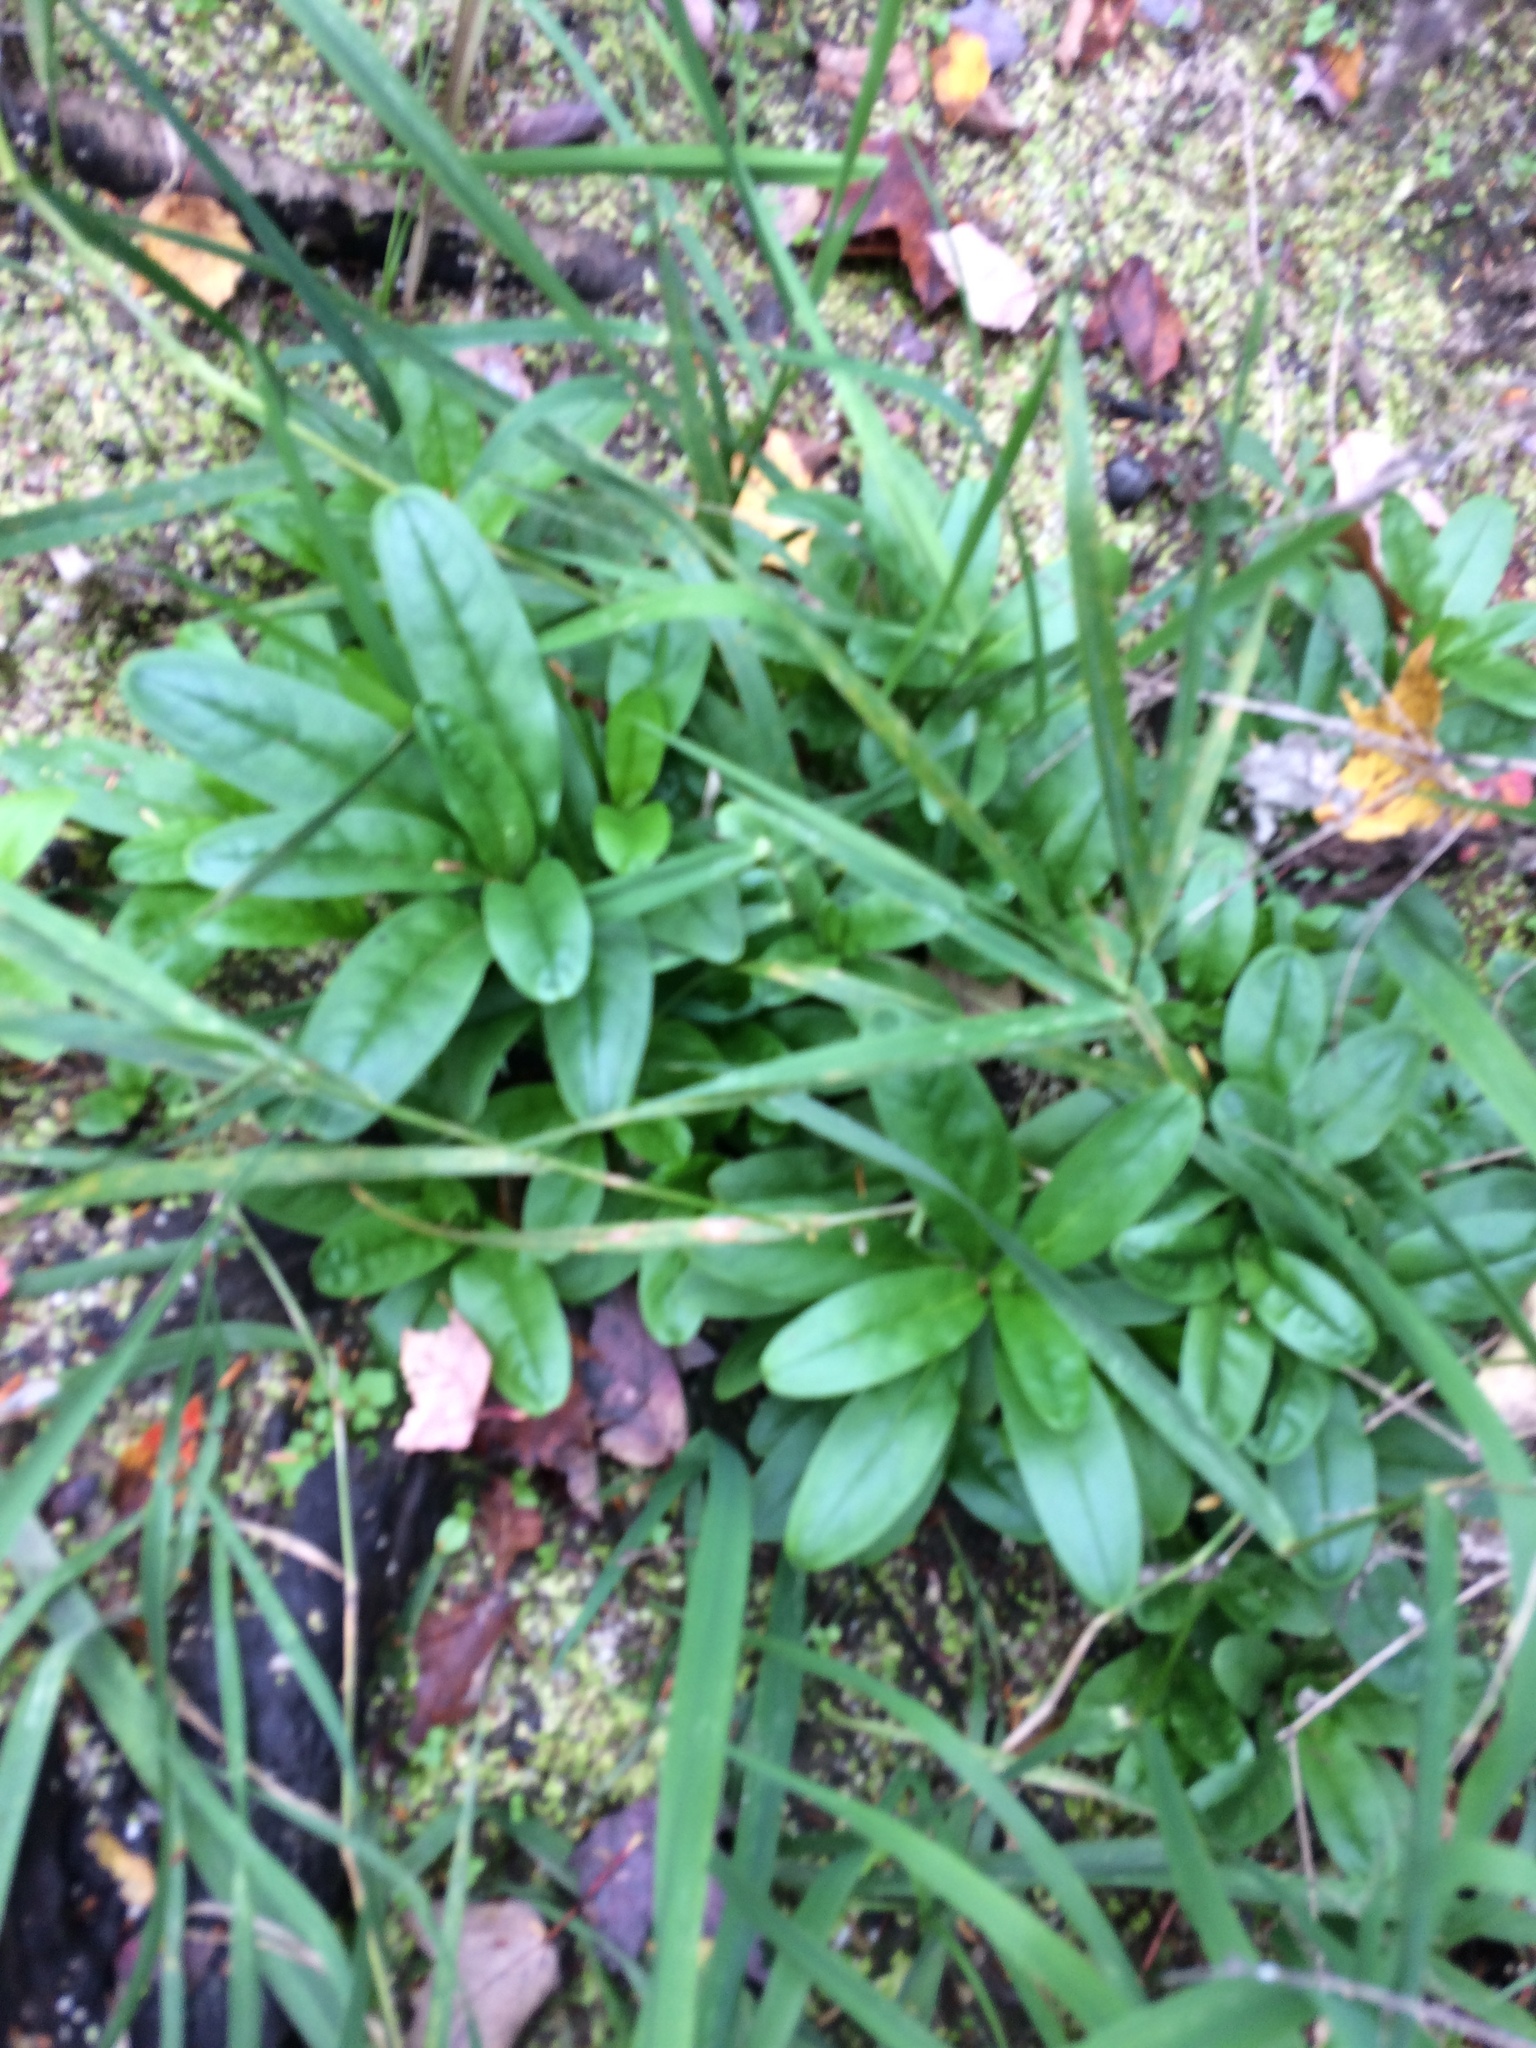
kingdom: Plantae
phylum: Tracheophyta
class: Magnoliopsida
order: Boraginales
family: Boraginaceae
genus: Myosotis
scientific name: Myosotis scorpioides
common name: Water forget-me-not
